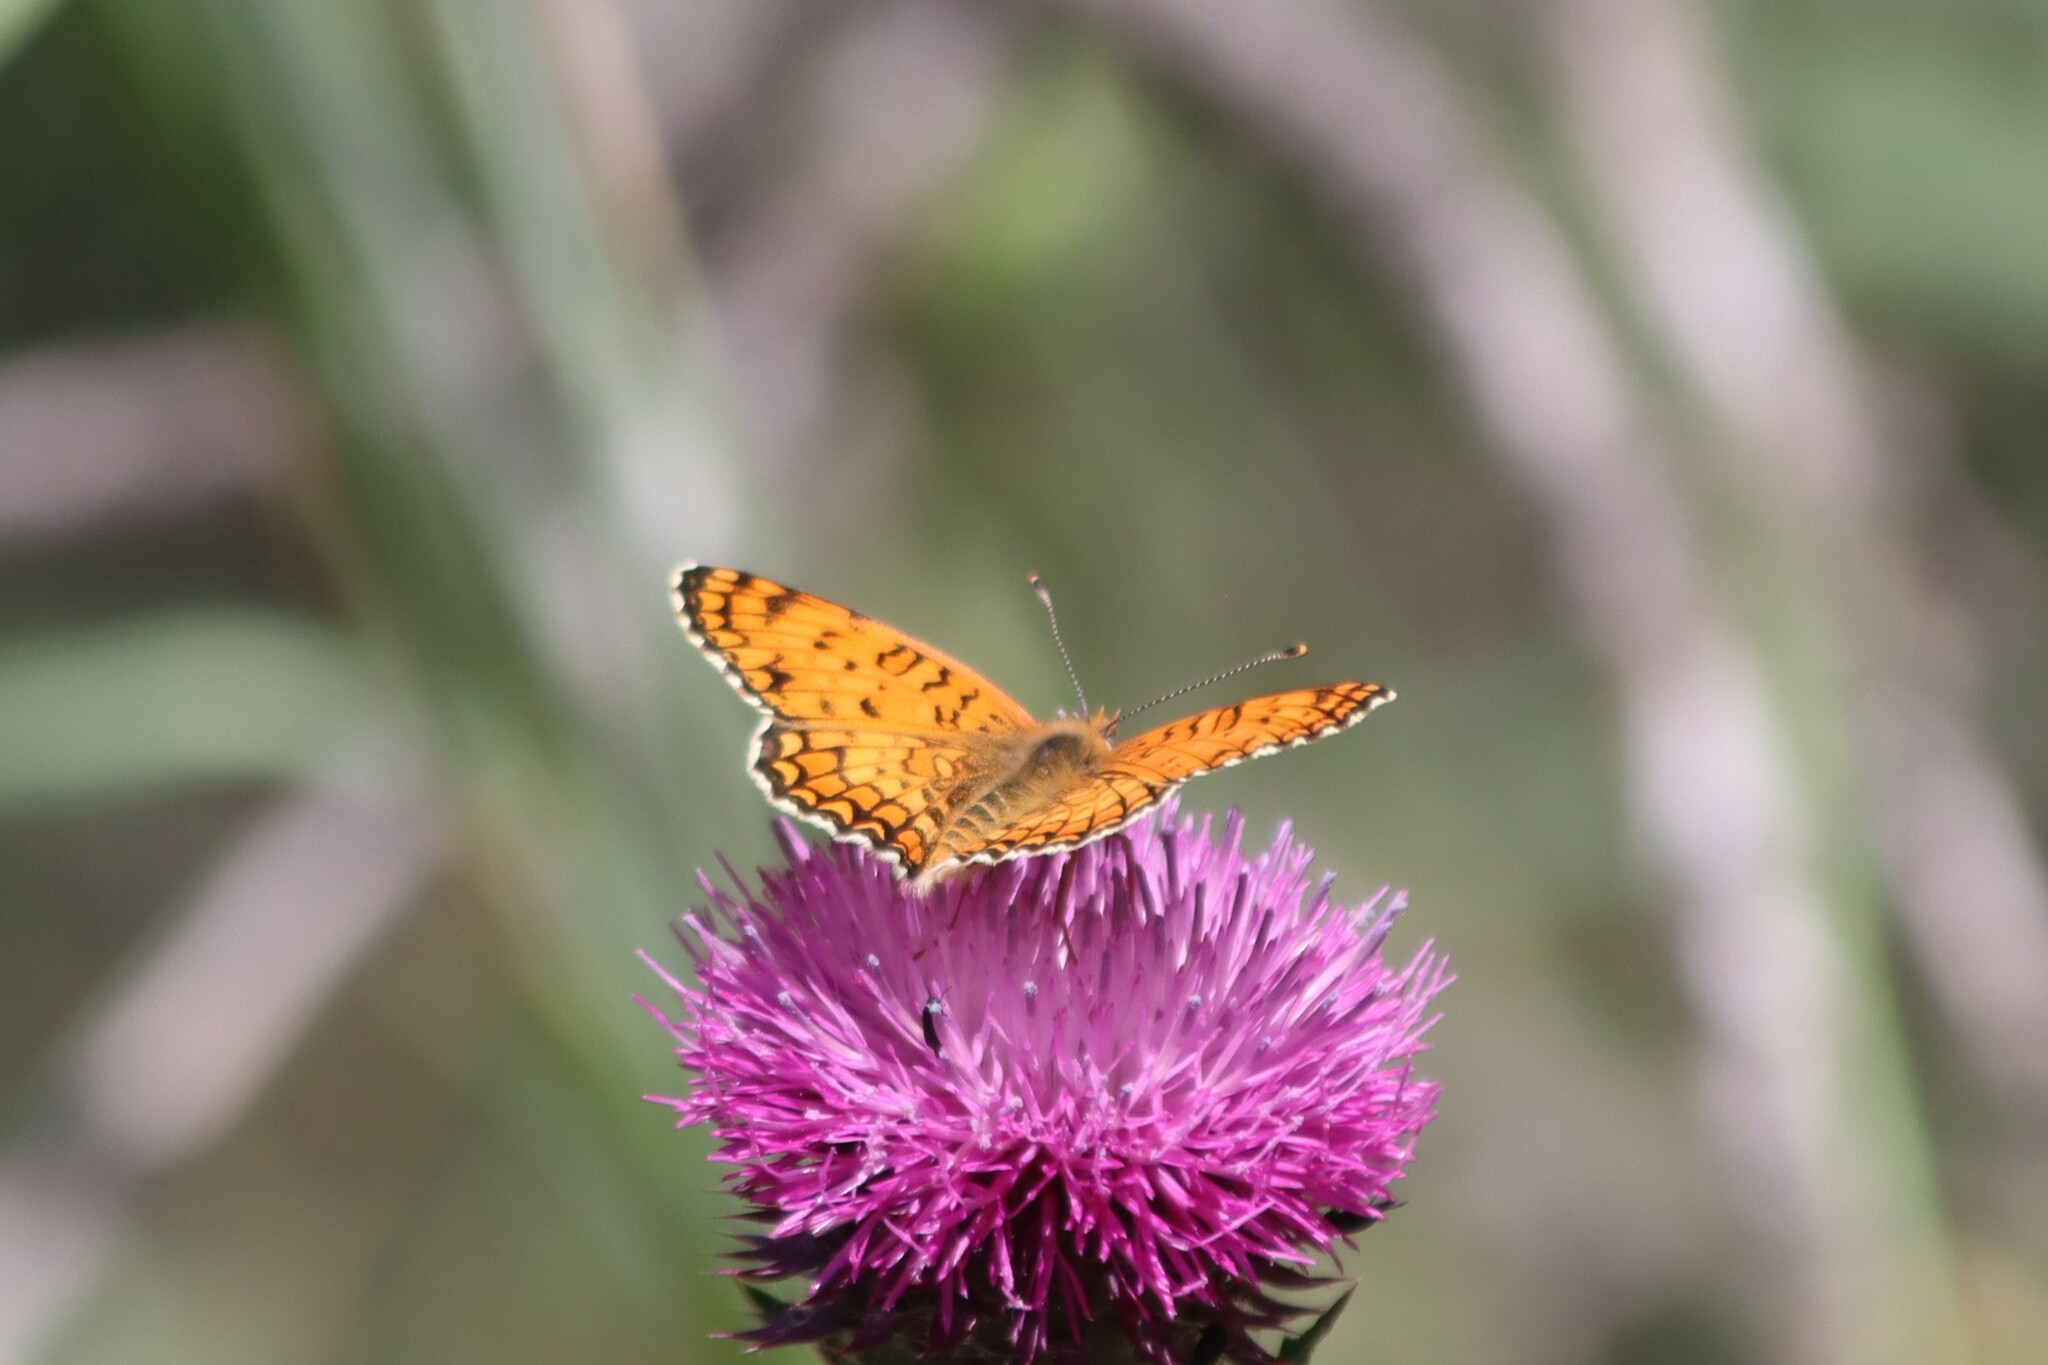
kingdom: Animalia
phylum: Arthropoda
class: Insecta
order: Lepidoptera
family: Nymphalidae
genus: Melitaea
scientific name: Melitaea phoebe
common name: Knapweed fritillary
